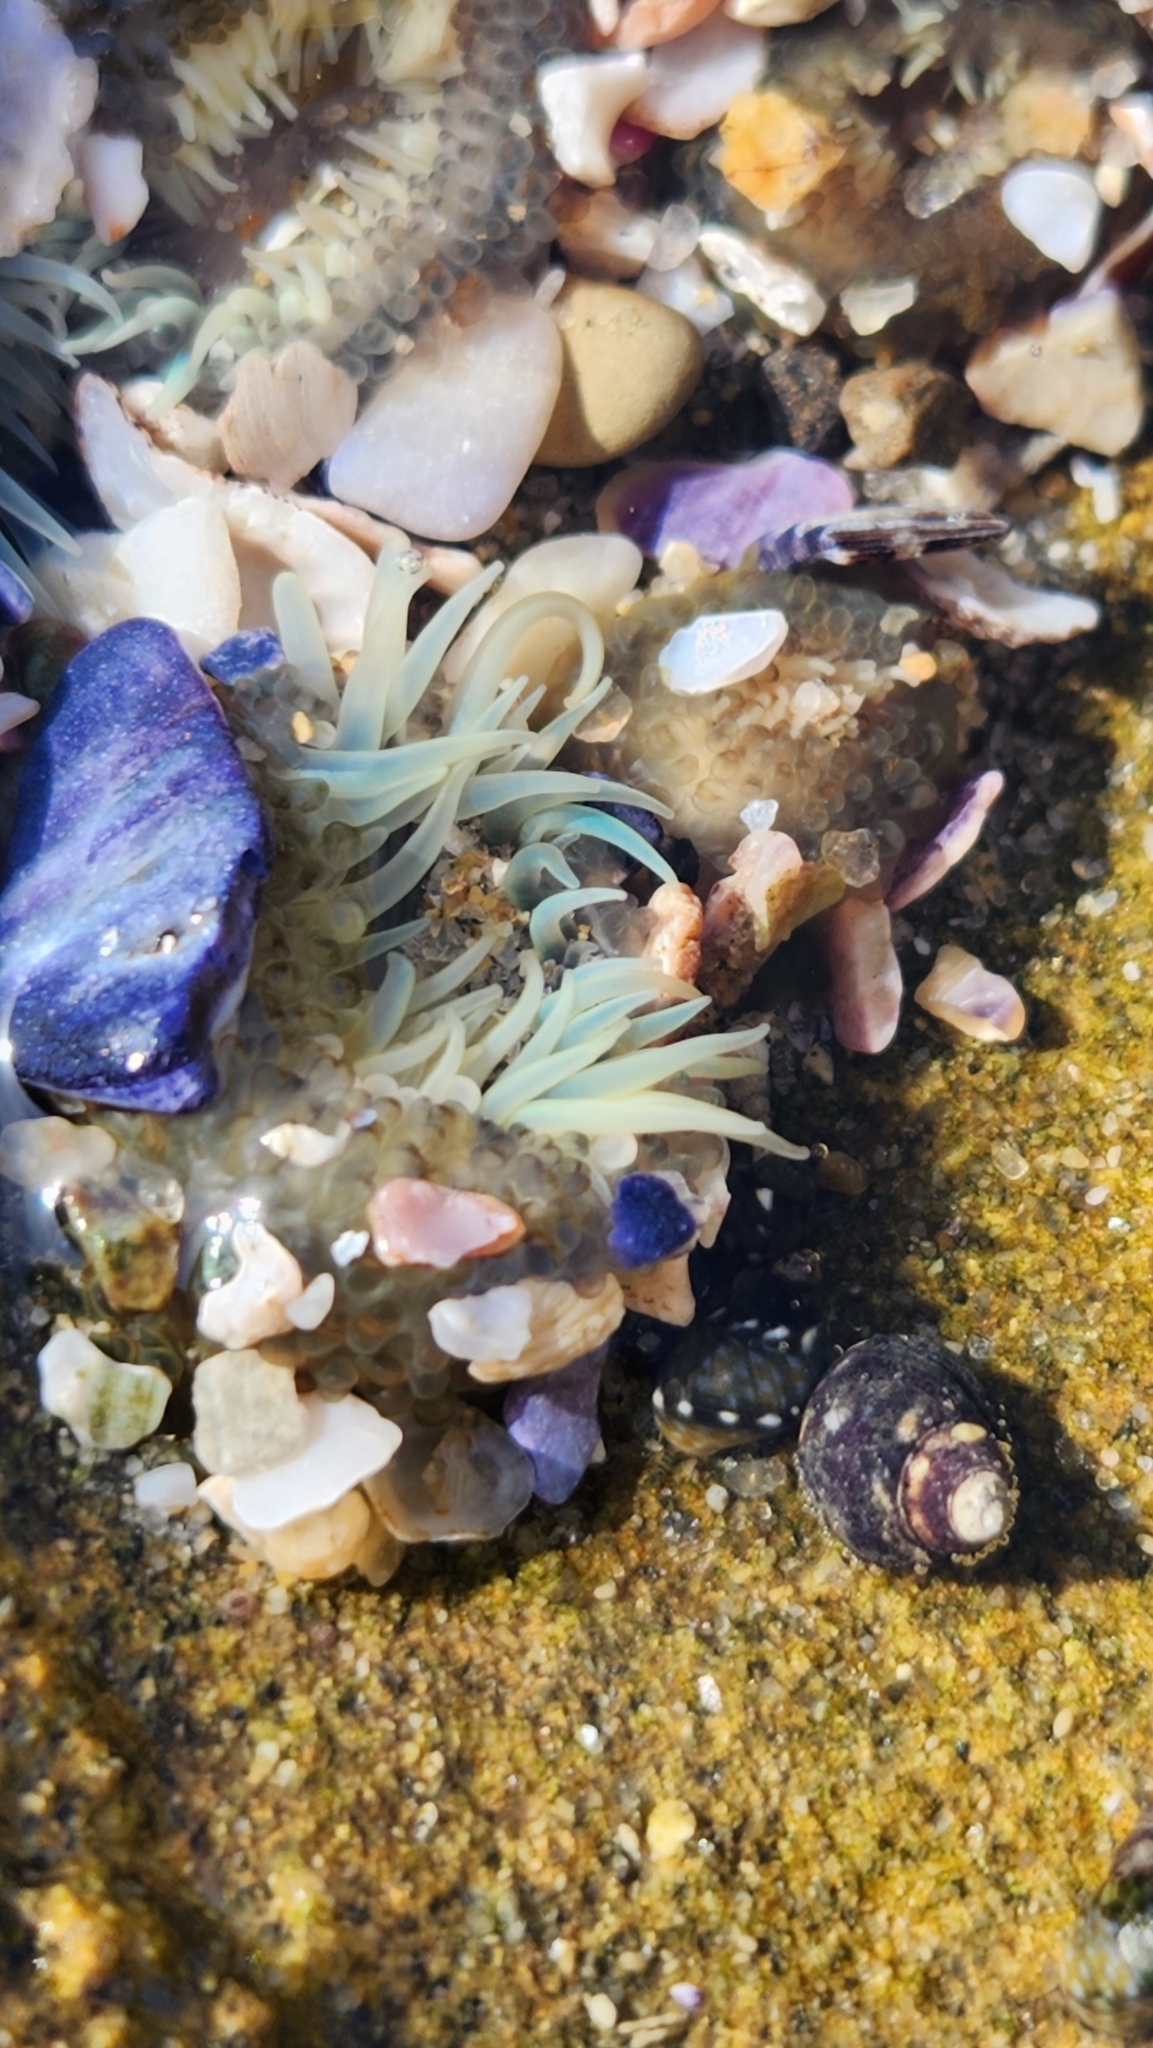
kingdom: Animalia
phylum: Cnidaria
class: Anthozoa
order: Actiniaria
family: Actiniidae
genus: Anthopleura
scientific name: Anthopleura elegantissima
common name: Clonal anemone
